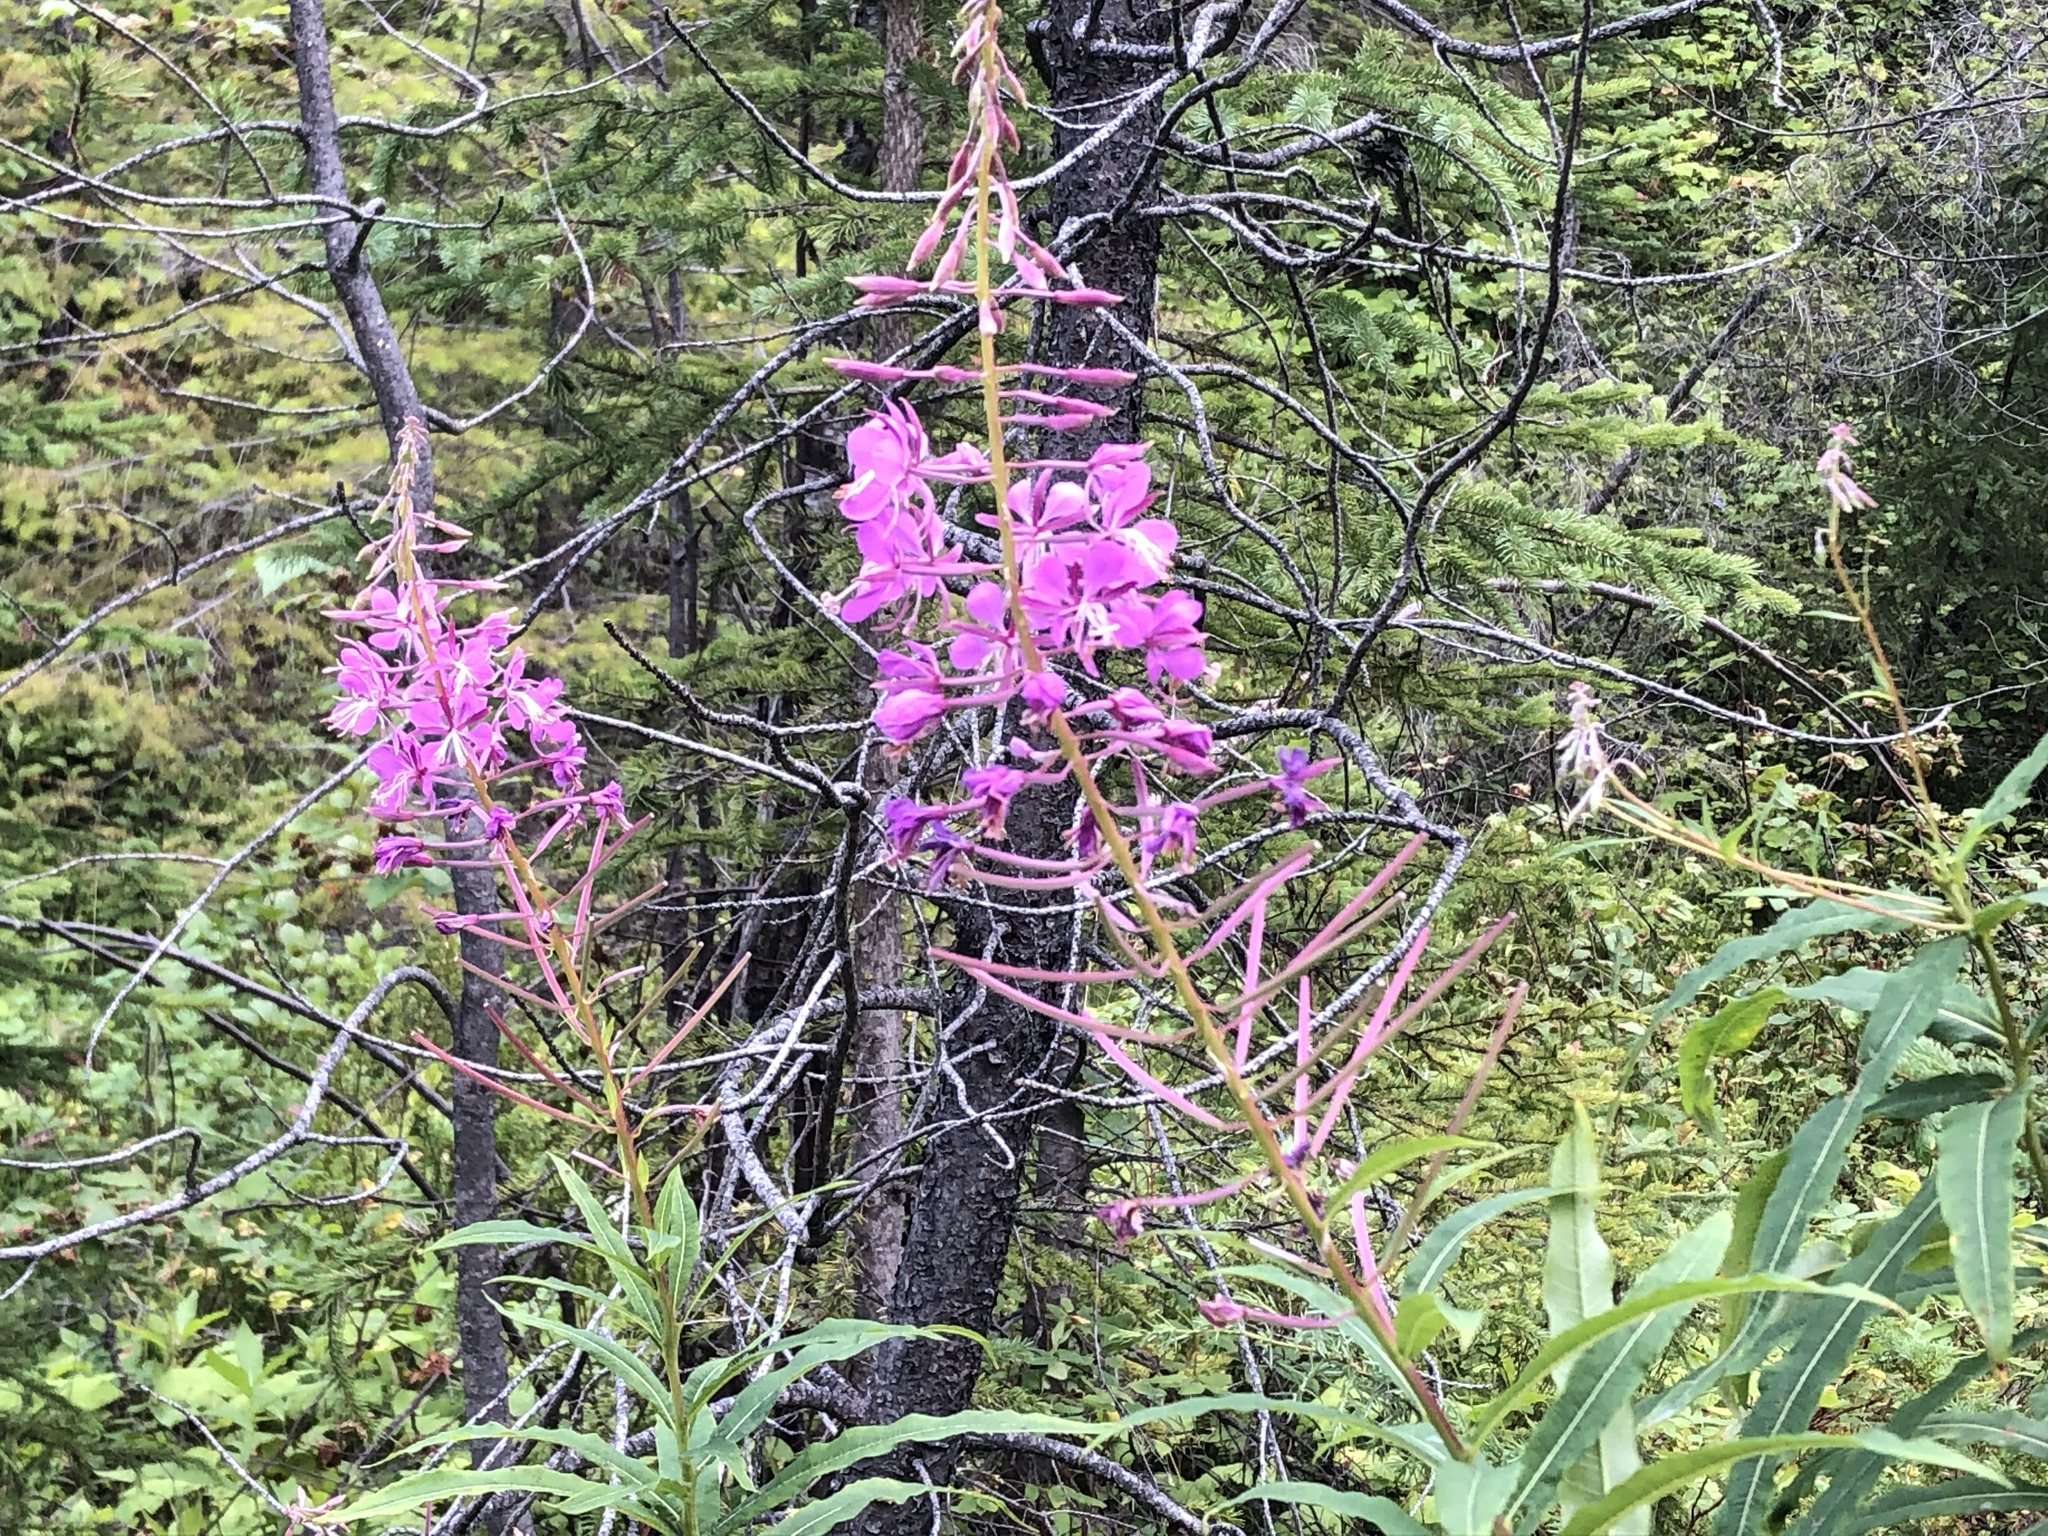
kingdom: Plantae
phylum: Tracheophyta
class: Magnoliopsida
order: Myrtales
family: Onagraceae
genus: Chamaenerion
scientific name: Chamaenerion angustifolium
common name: Fireweed
